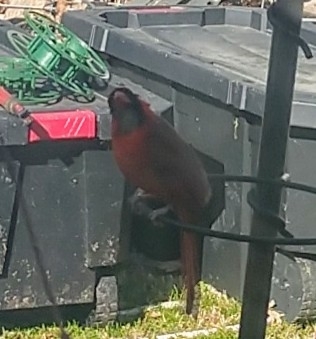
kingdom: Animalia
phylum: Chordata
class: Aves
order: Passeriformes
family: Cardinalidae
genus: Cardinalis
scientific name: Cardinalis cardinalis
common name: Northern cardinal
